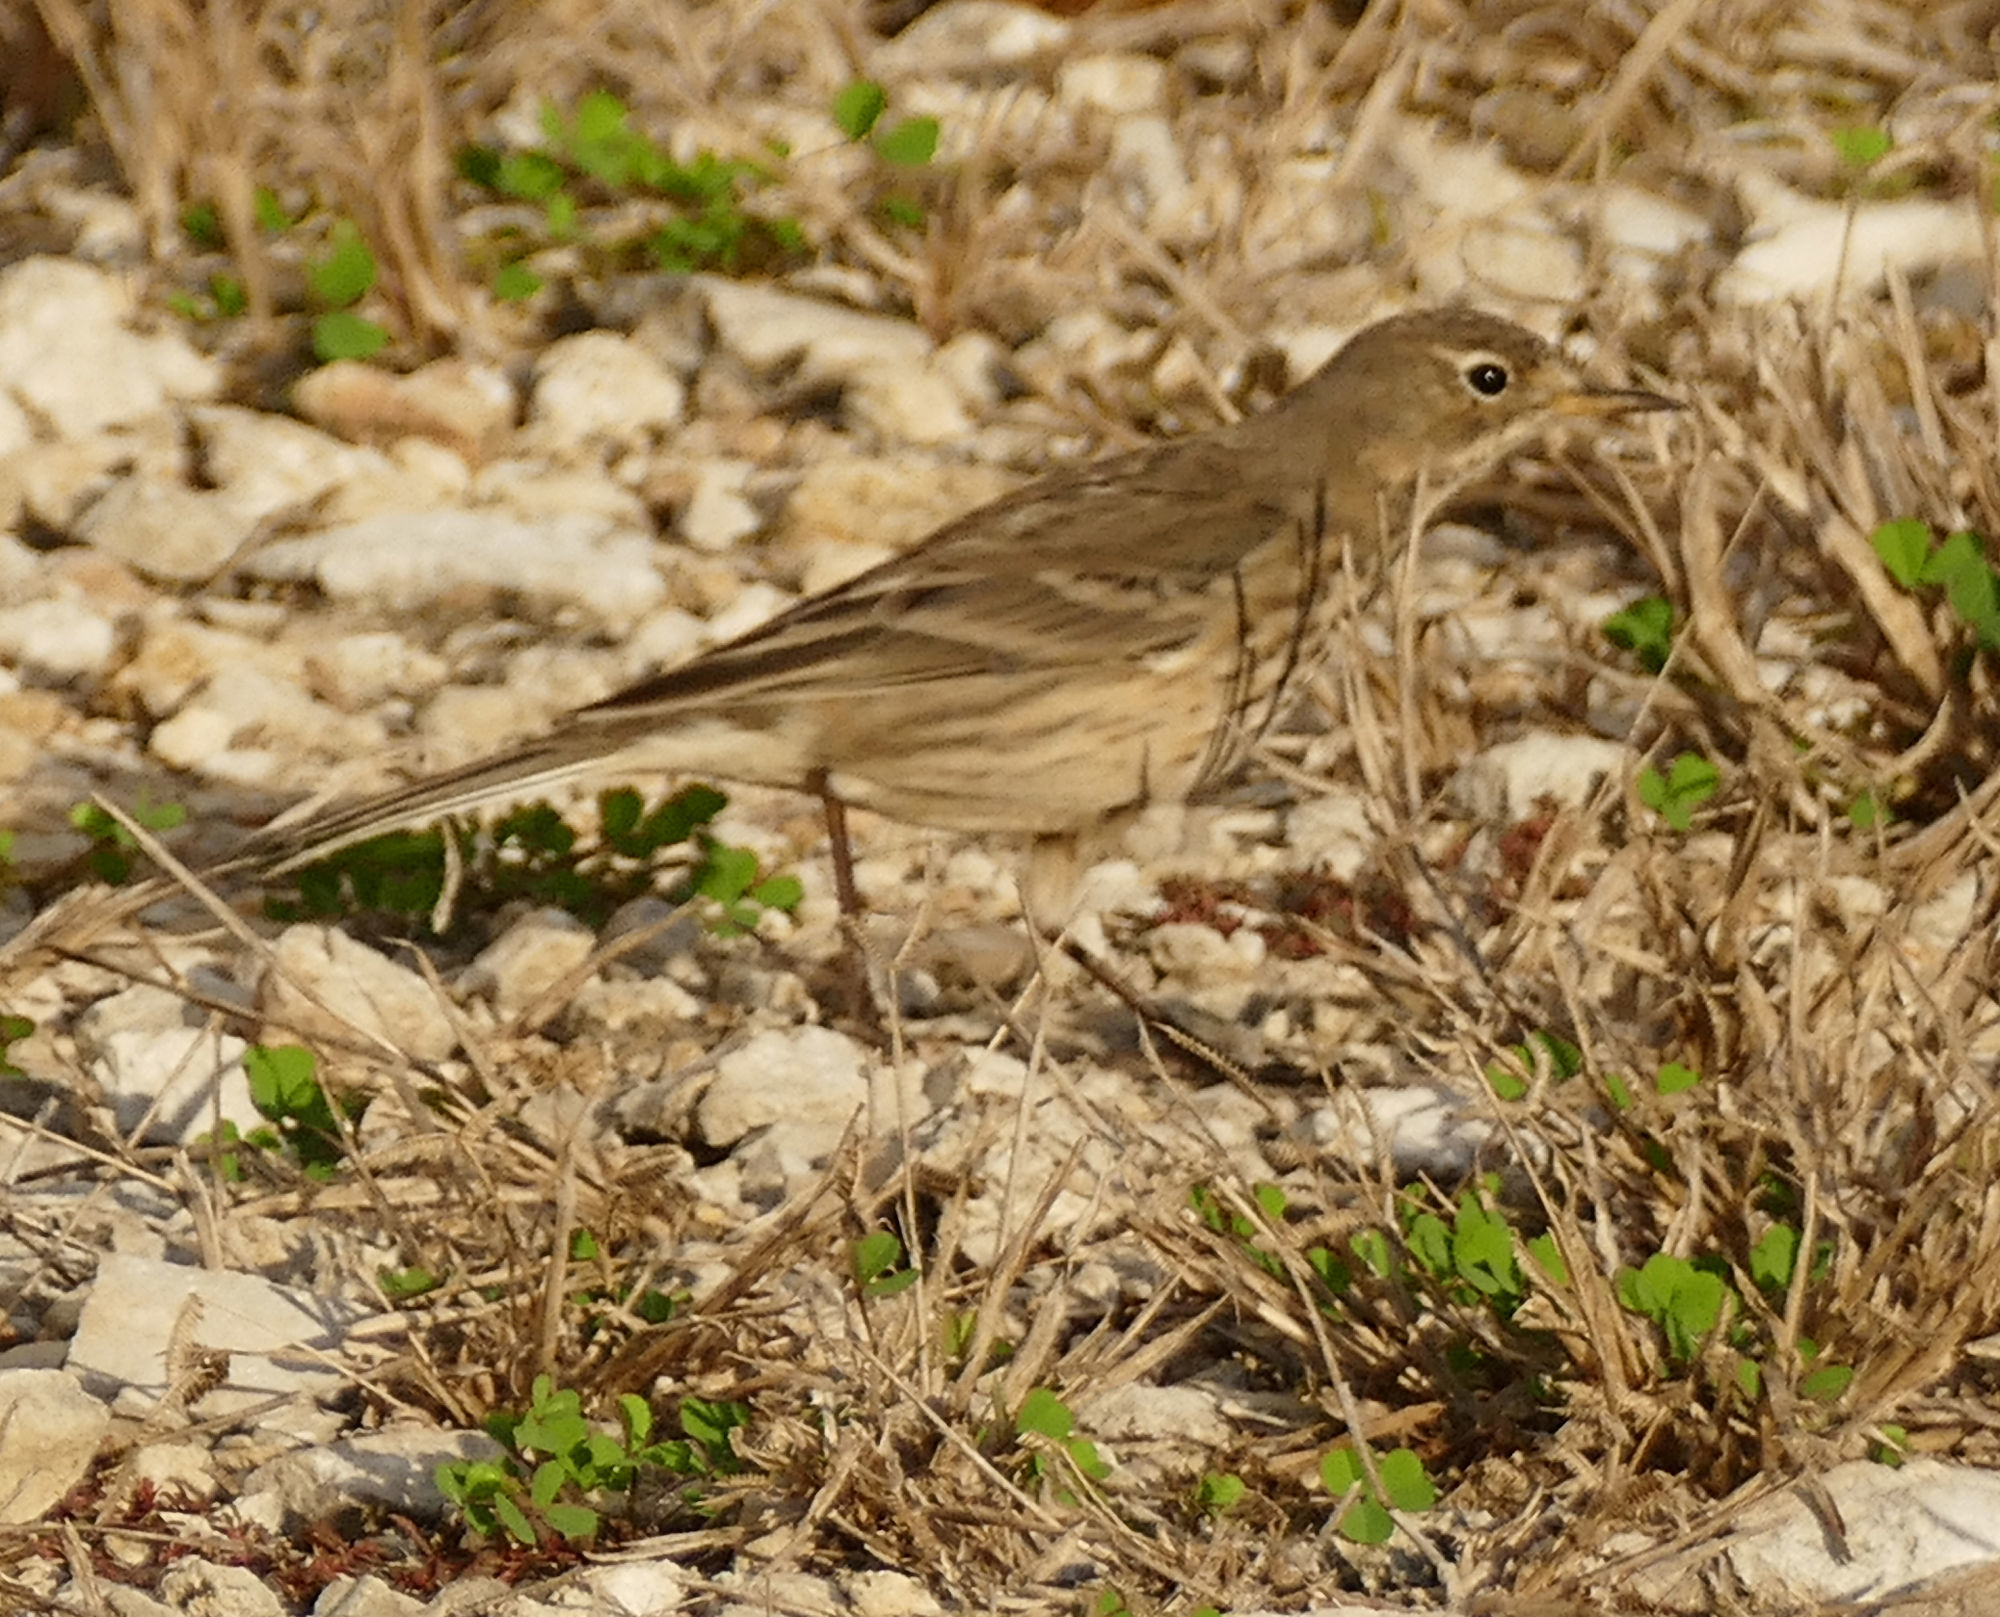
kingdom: Animalia
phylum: Chordata
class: Aves
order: Passeriformes
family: Motacillidae
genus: Anthus
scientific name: Anthus rubescens
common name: Buff-bellied pipit
